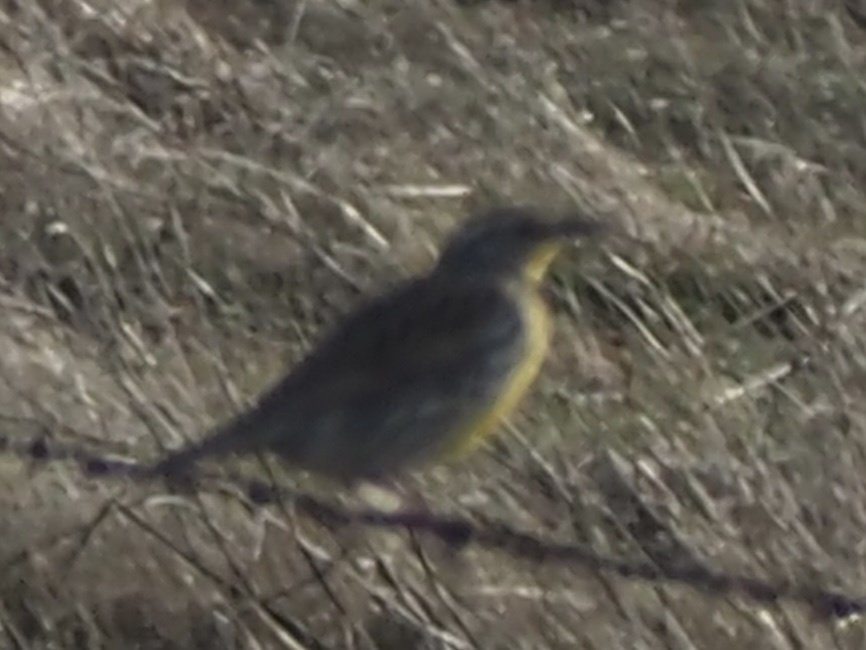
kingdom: Animalia
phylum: Chordata
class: Aves
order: Passeriformes
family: Icteridae
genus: Sturnella
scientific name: Sturnella neglecta
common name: Western meadowlark
